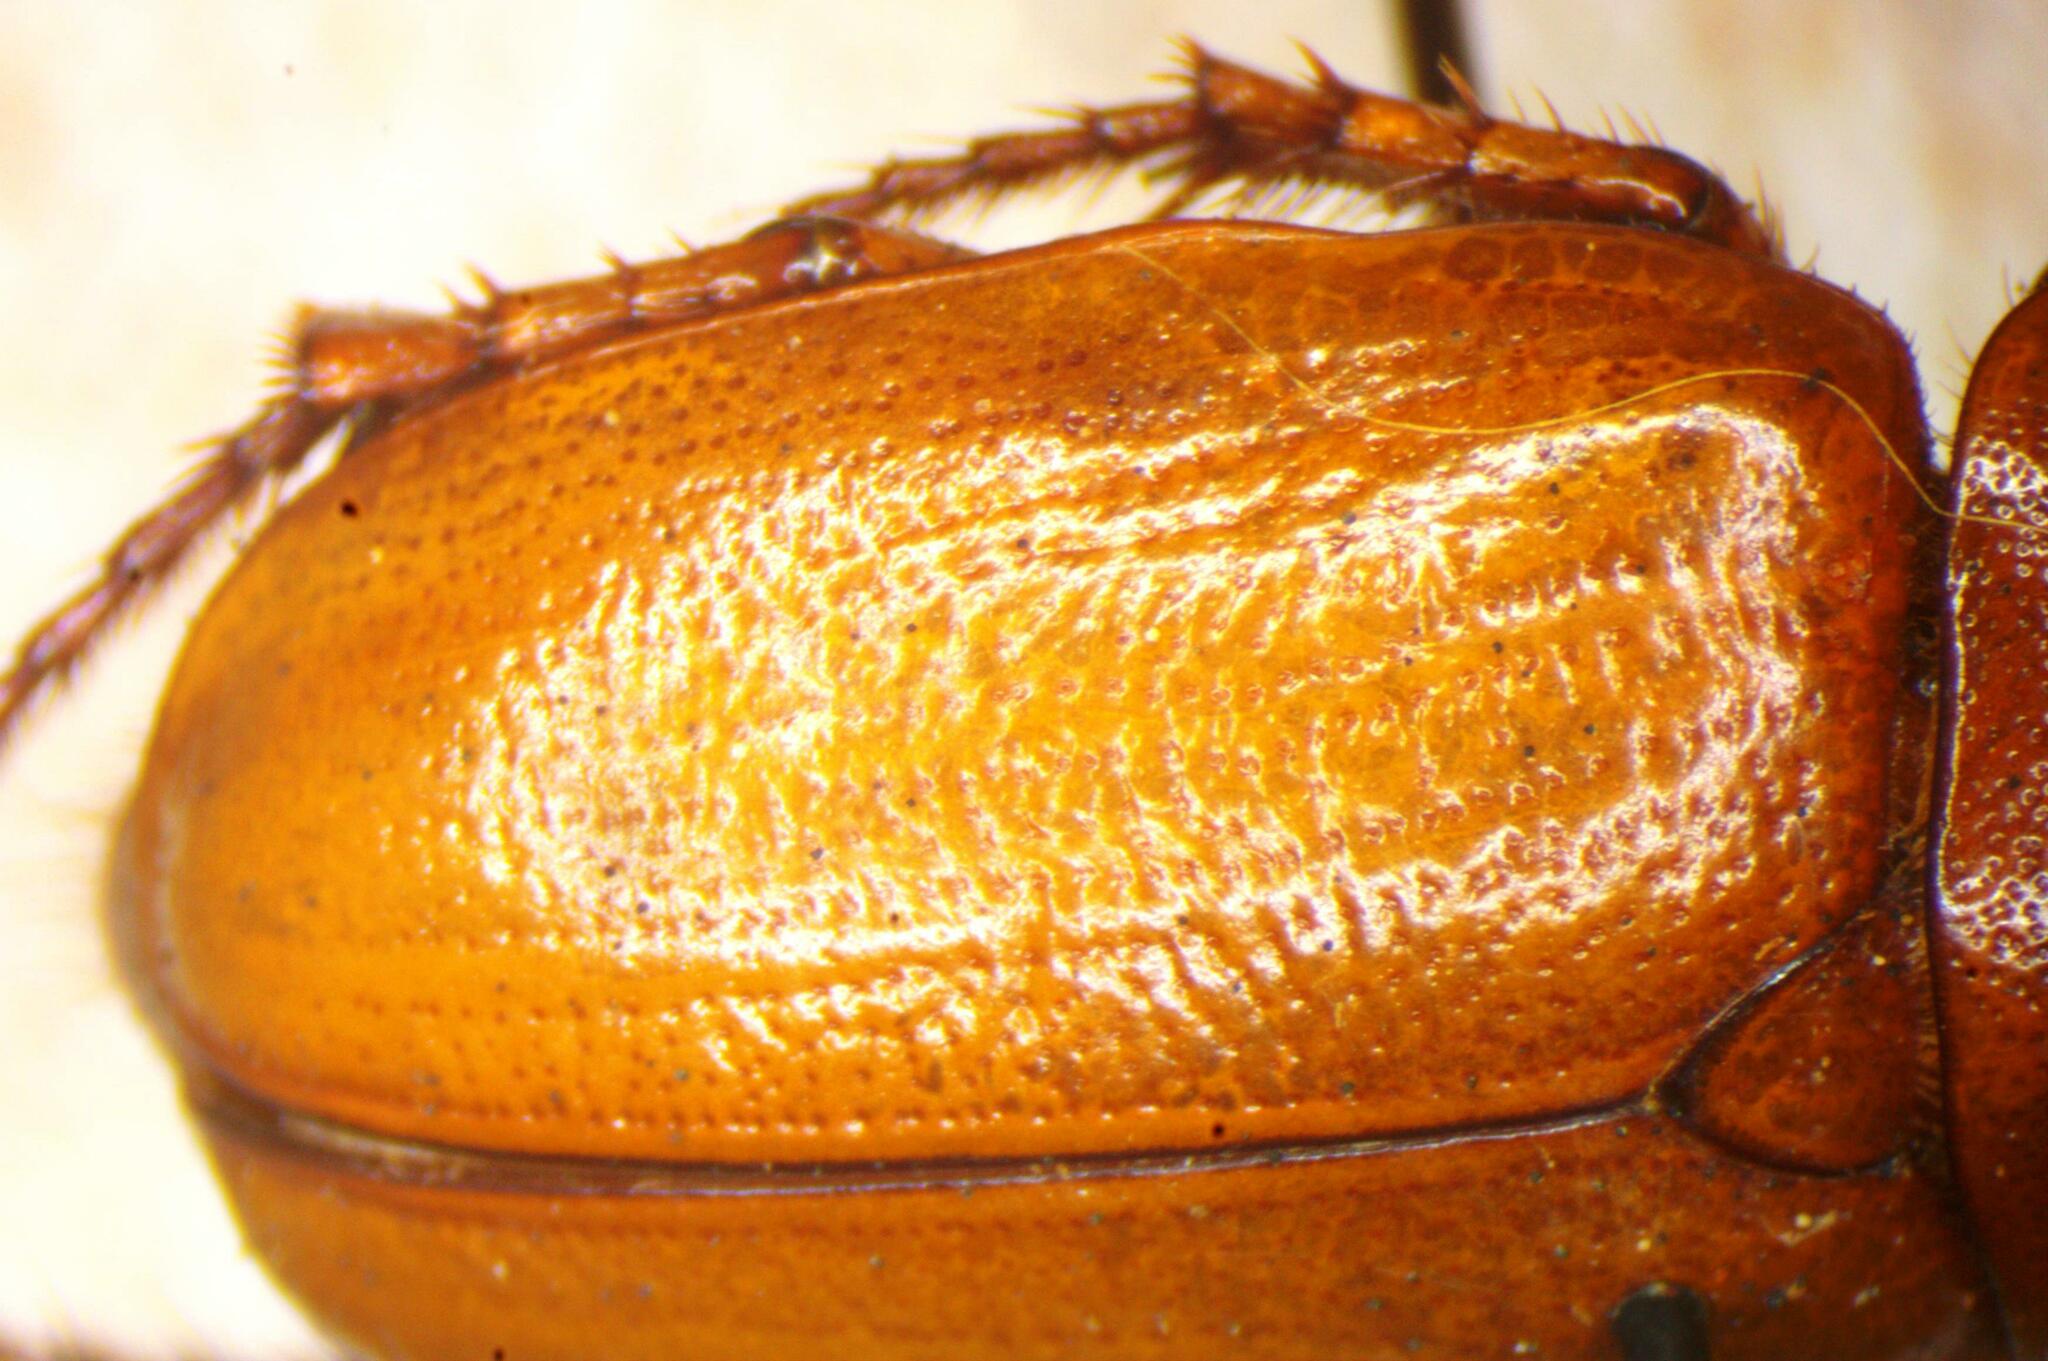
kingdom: Animalia
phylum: Arthropoda
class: Insecta
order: Coleoptera
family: Scarabaeidae
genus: Cyclocephala
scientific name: Cyclocephala putrida
